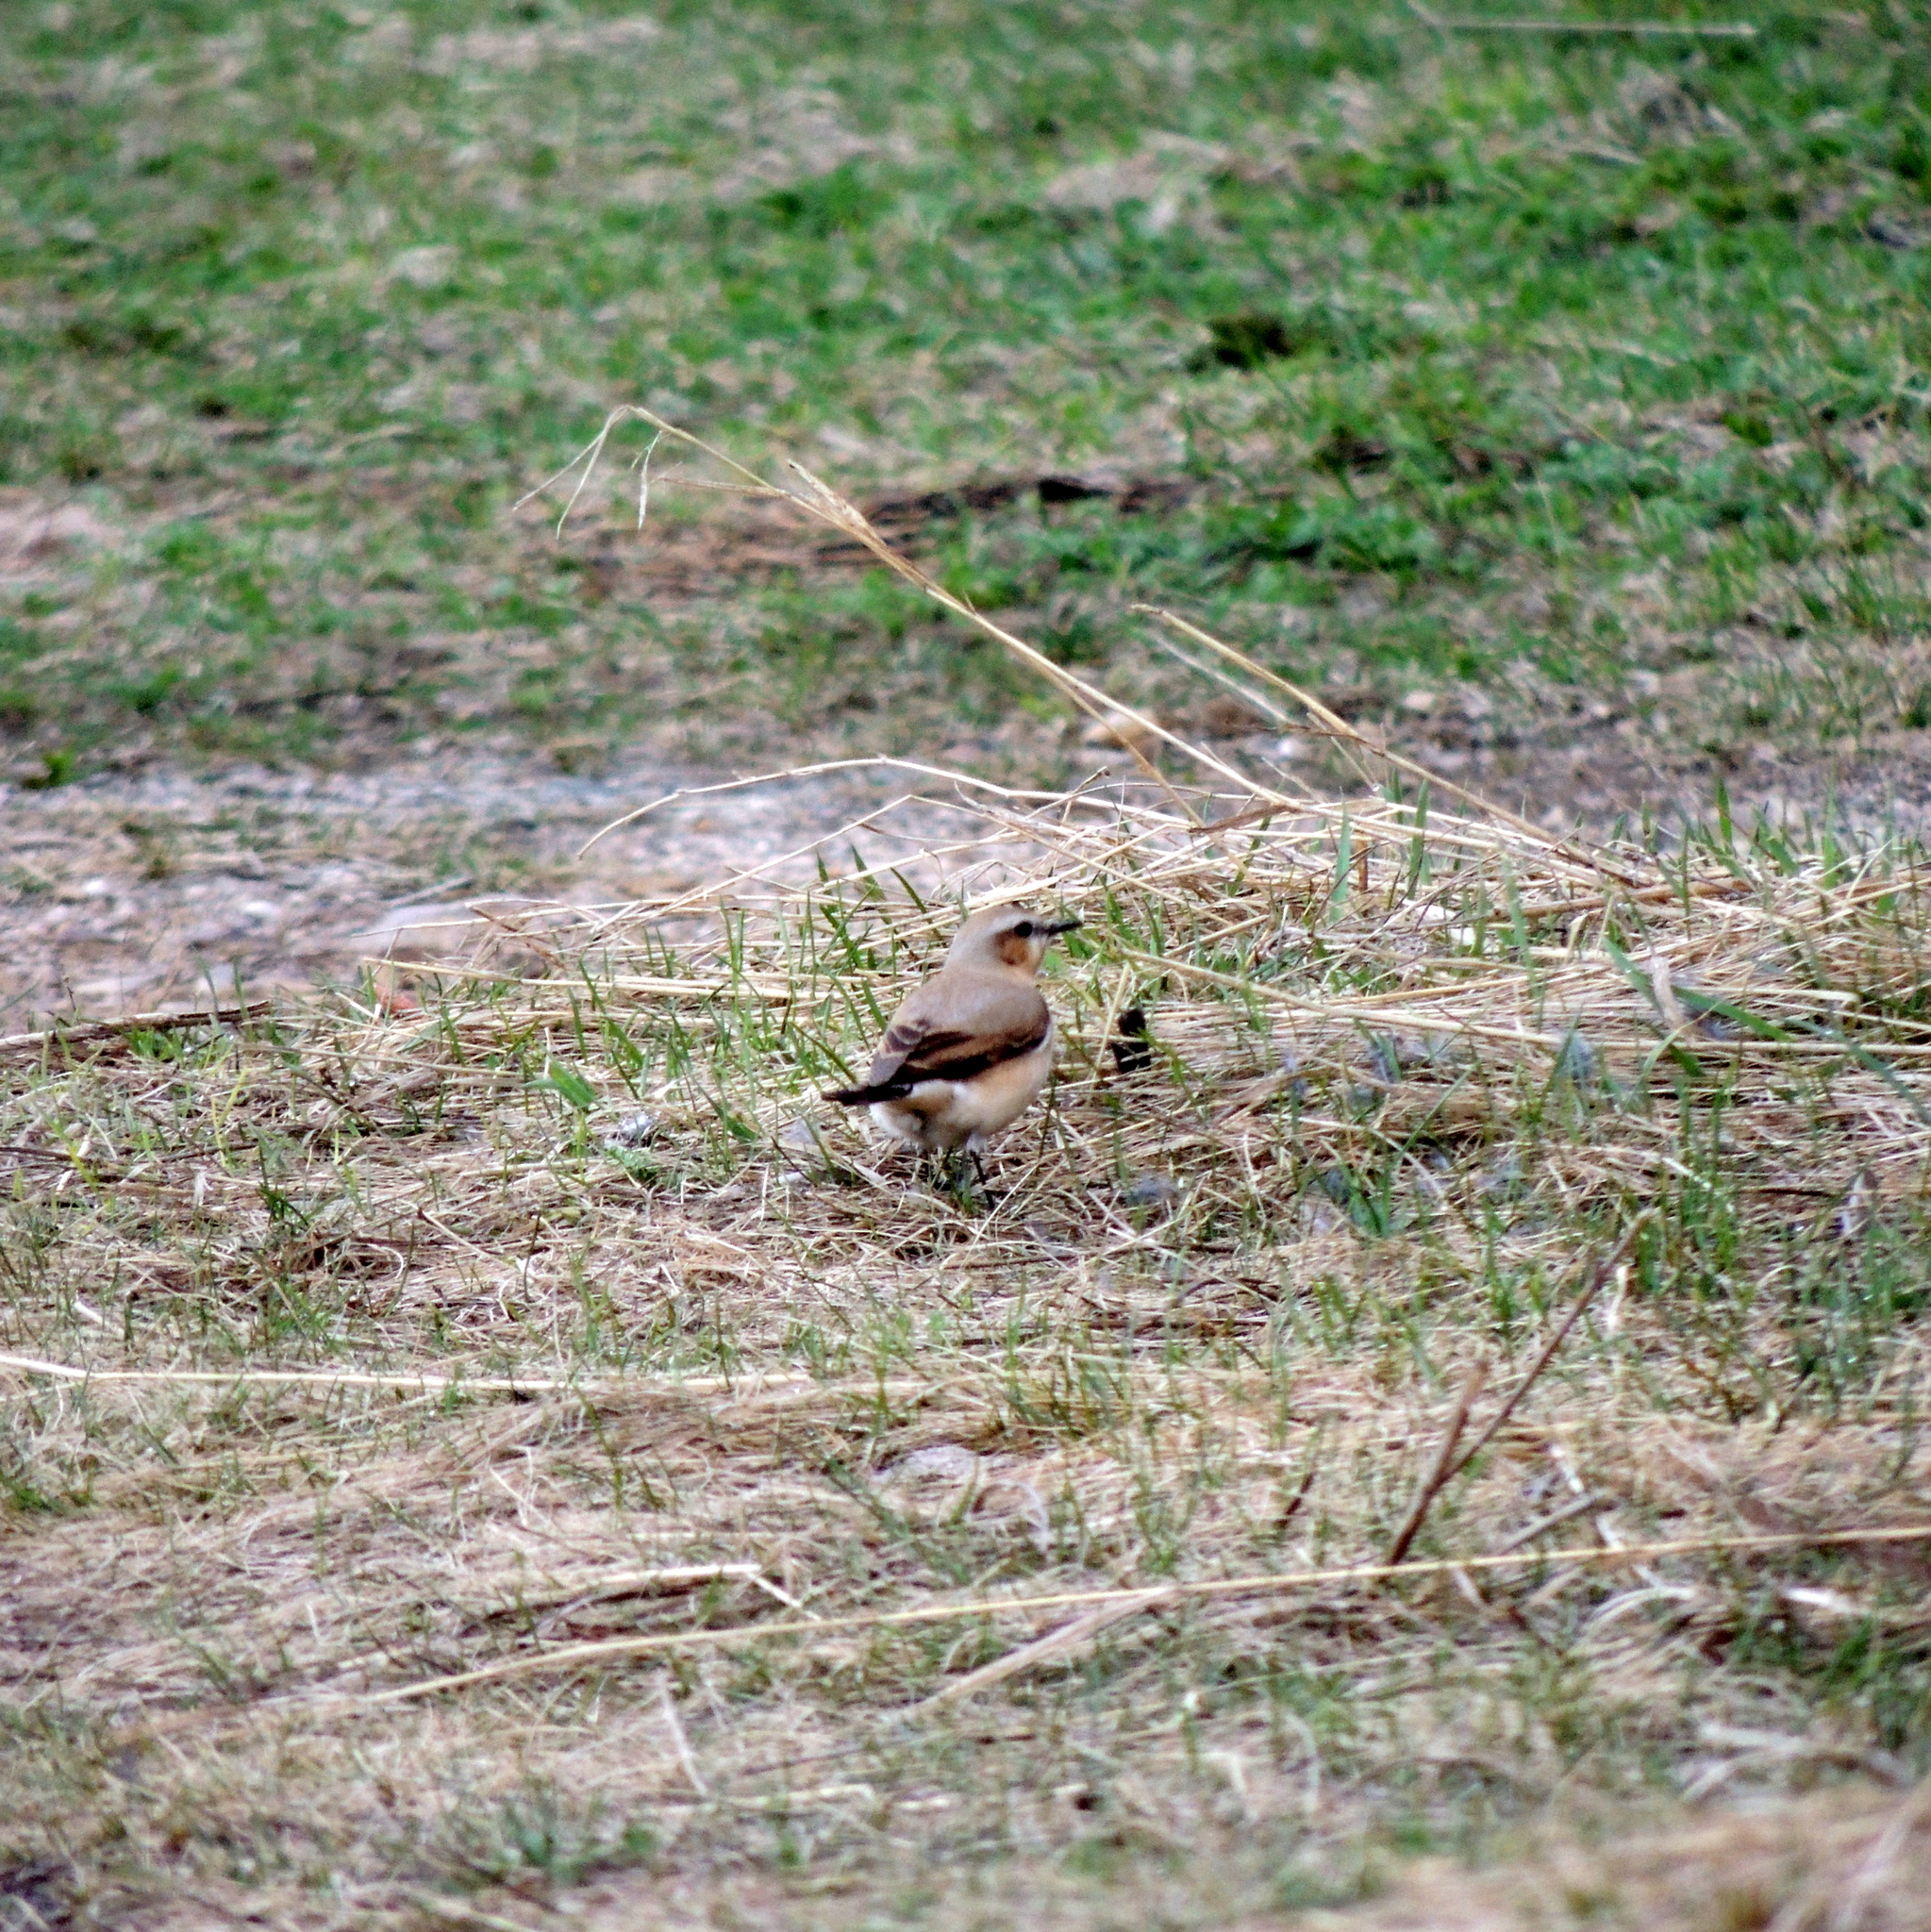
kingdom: Animalia
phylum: Chordata
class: Aves
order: Passeriformes
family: Muscicapidae
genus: Oenanthe
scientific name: Oenanthe oenanthe
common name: Northern wheatear
